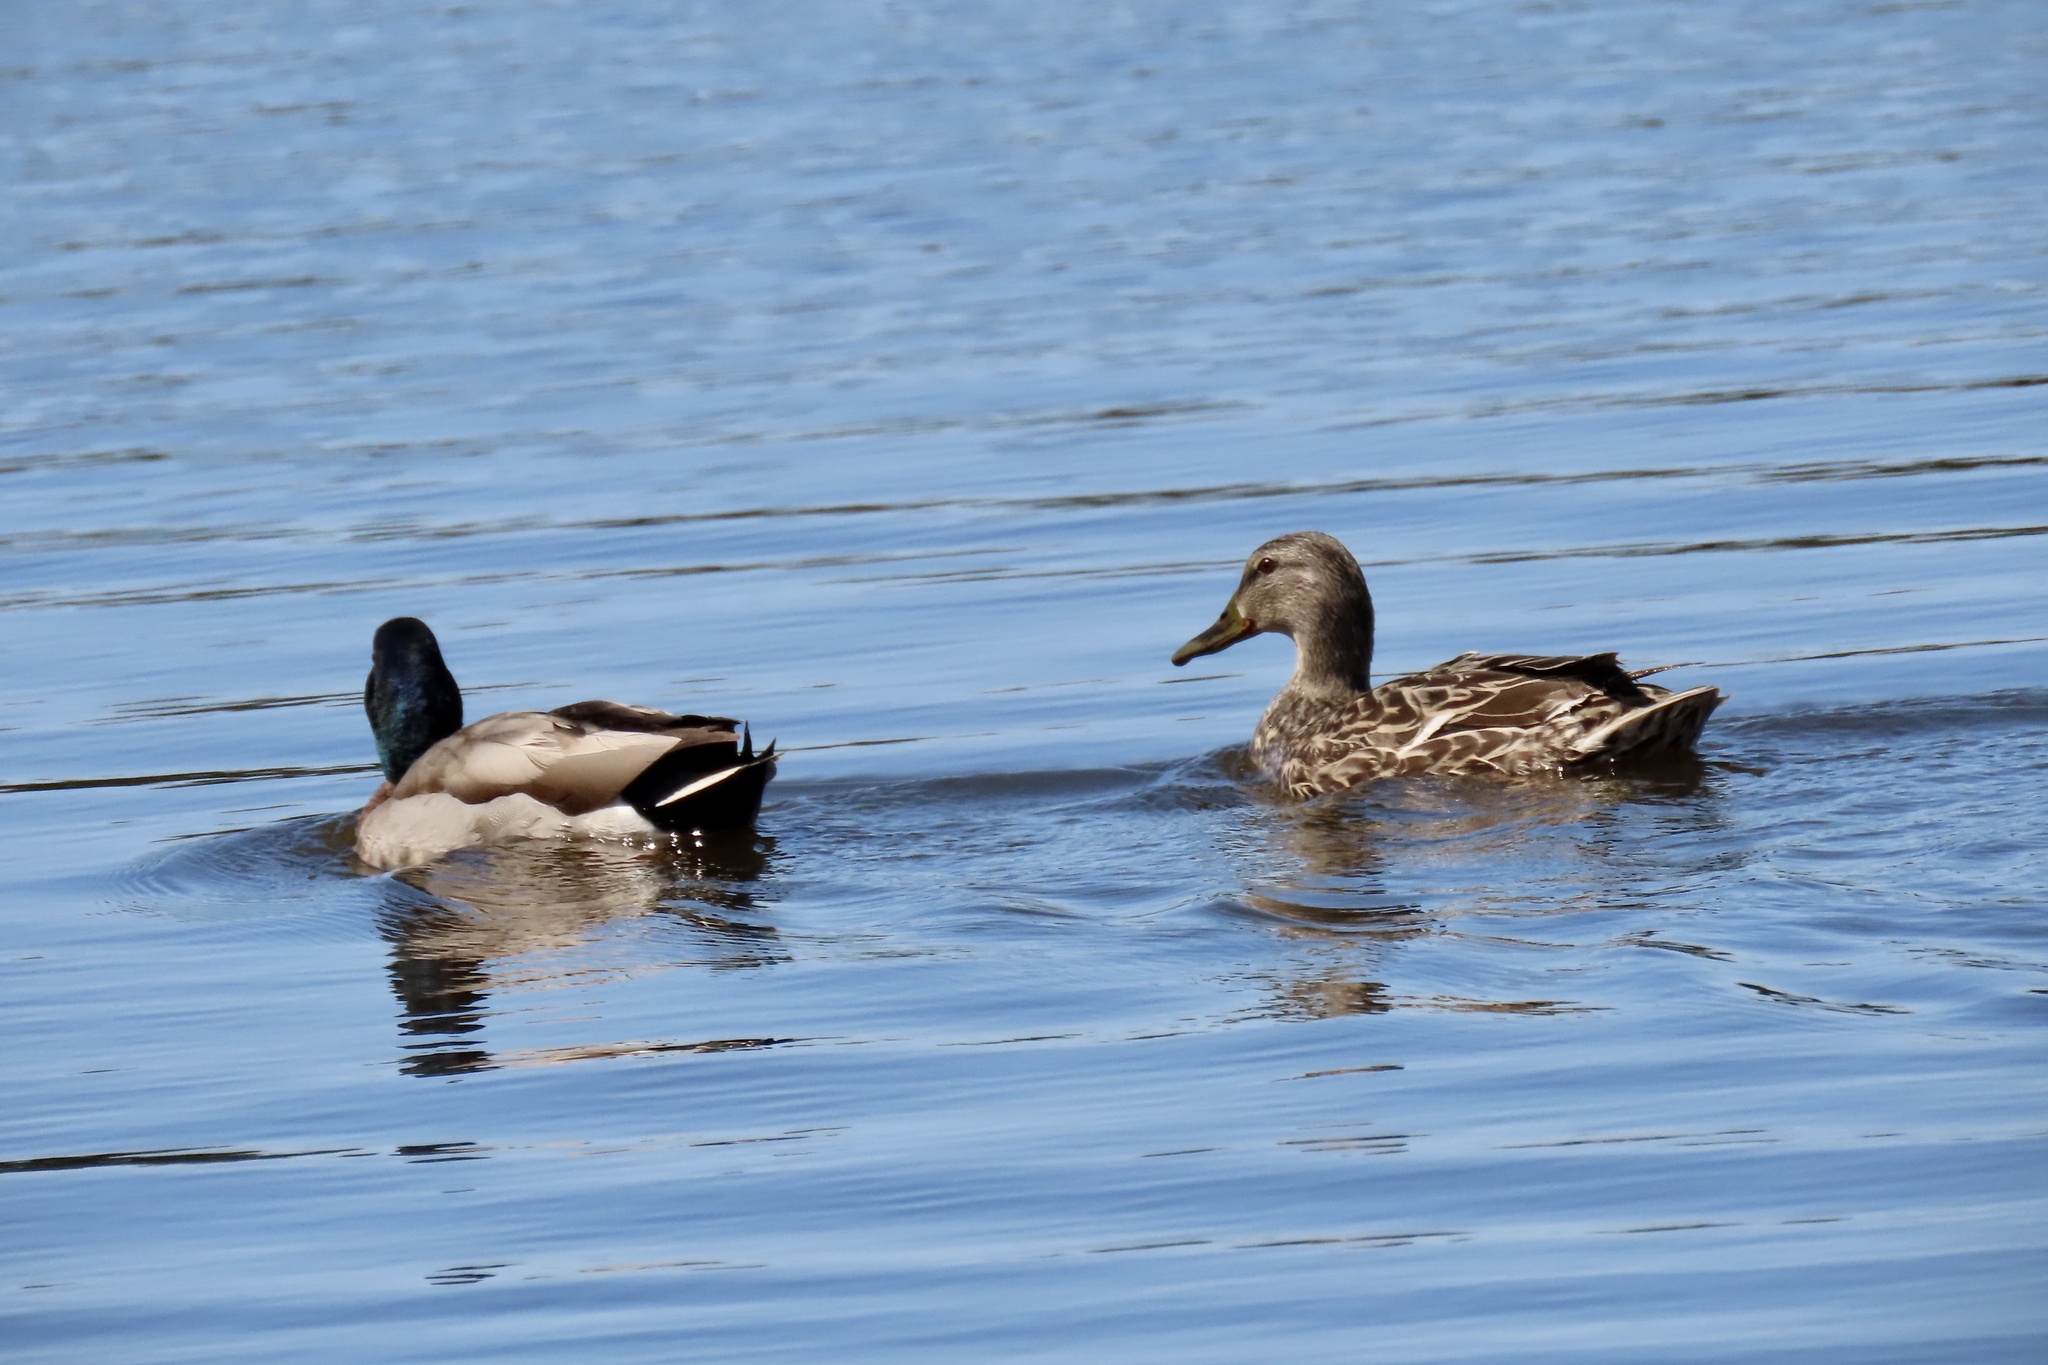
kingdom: Animalia
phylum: Chordata
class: Aves
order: Anseriformes
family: Anatidae
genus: Anas
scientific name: Anas platyrhynchos
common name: Mallard
